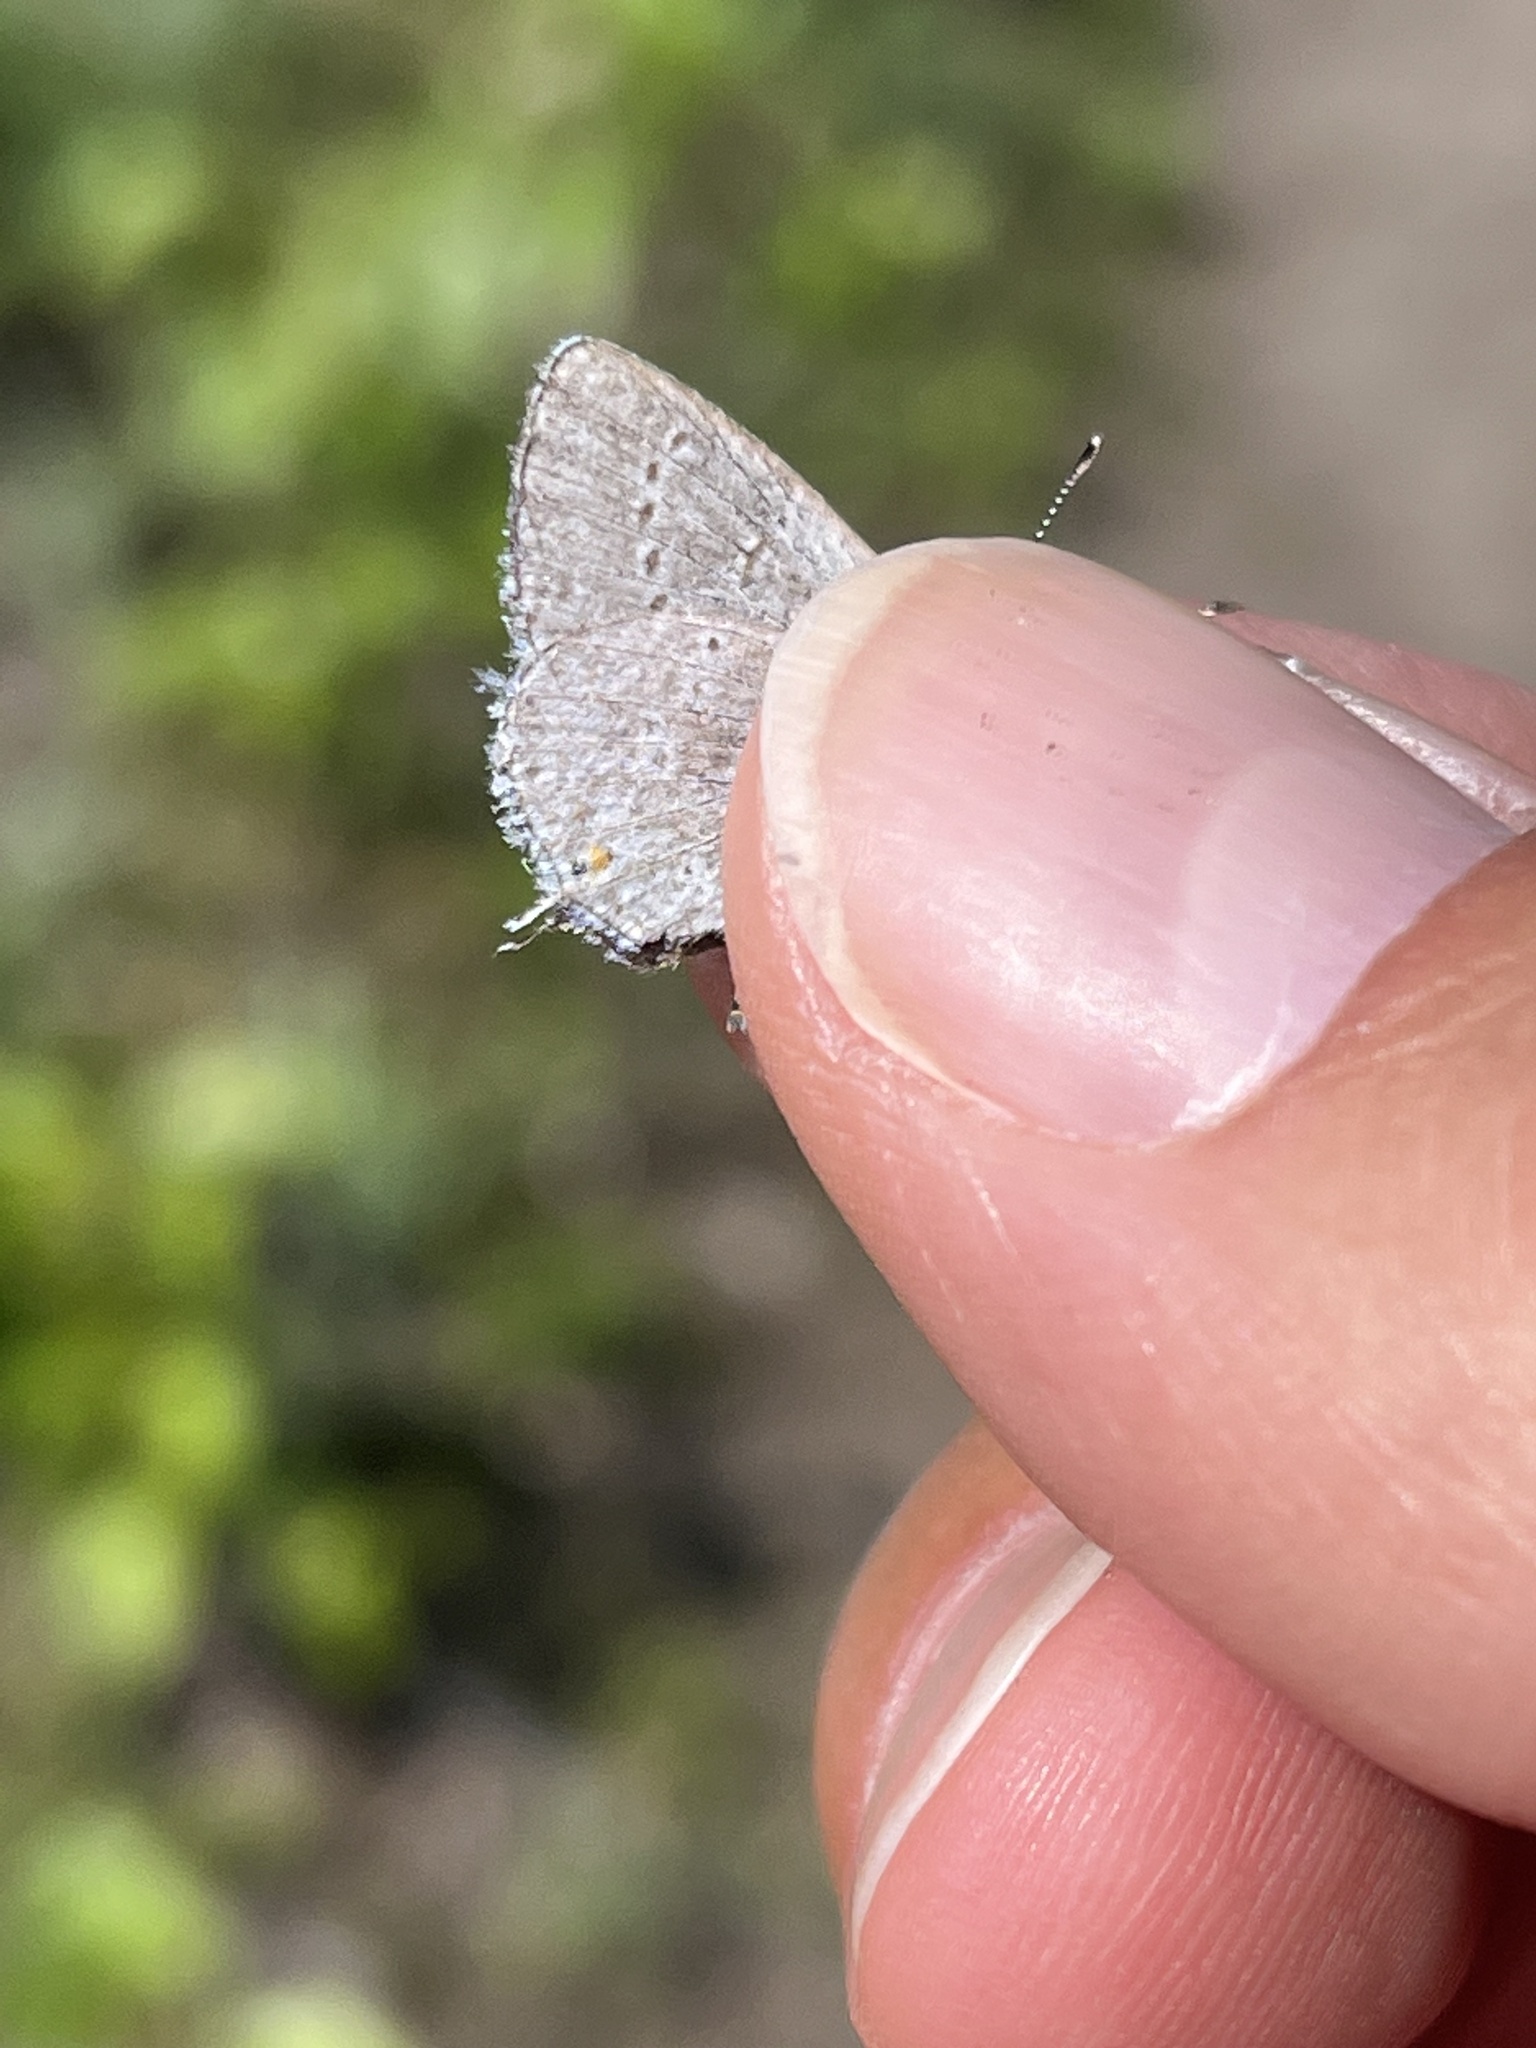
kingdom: Animalia
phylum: Arthropoda
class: Insecta
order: Lepidoptera
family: Lycaenidae
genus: Elkalyce
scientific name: Elkalyce amyntula
